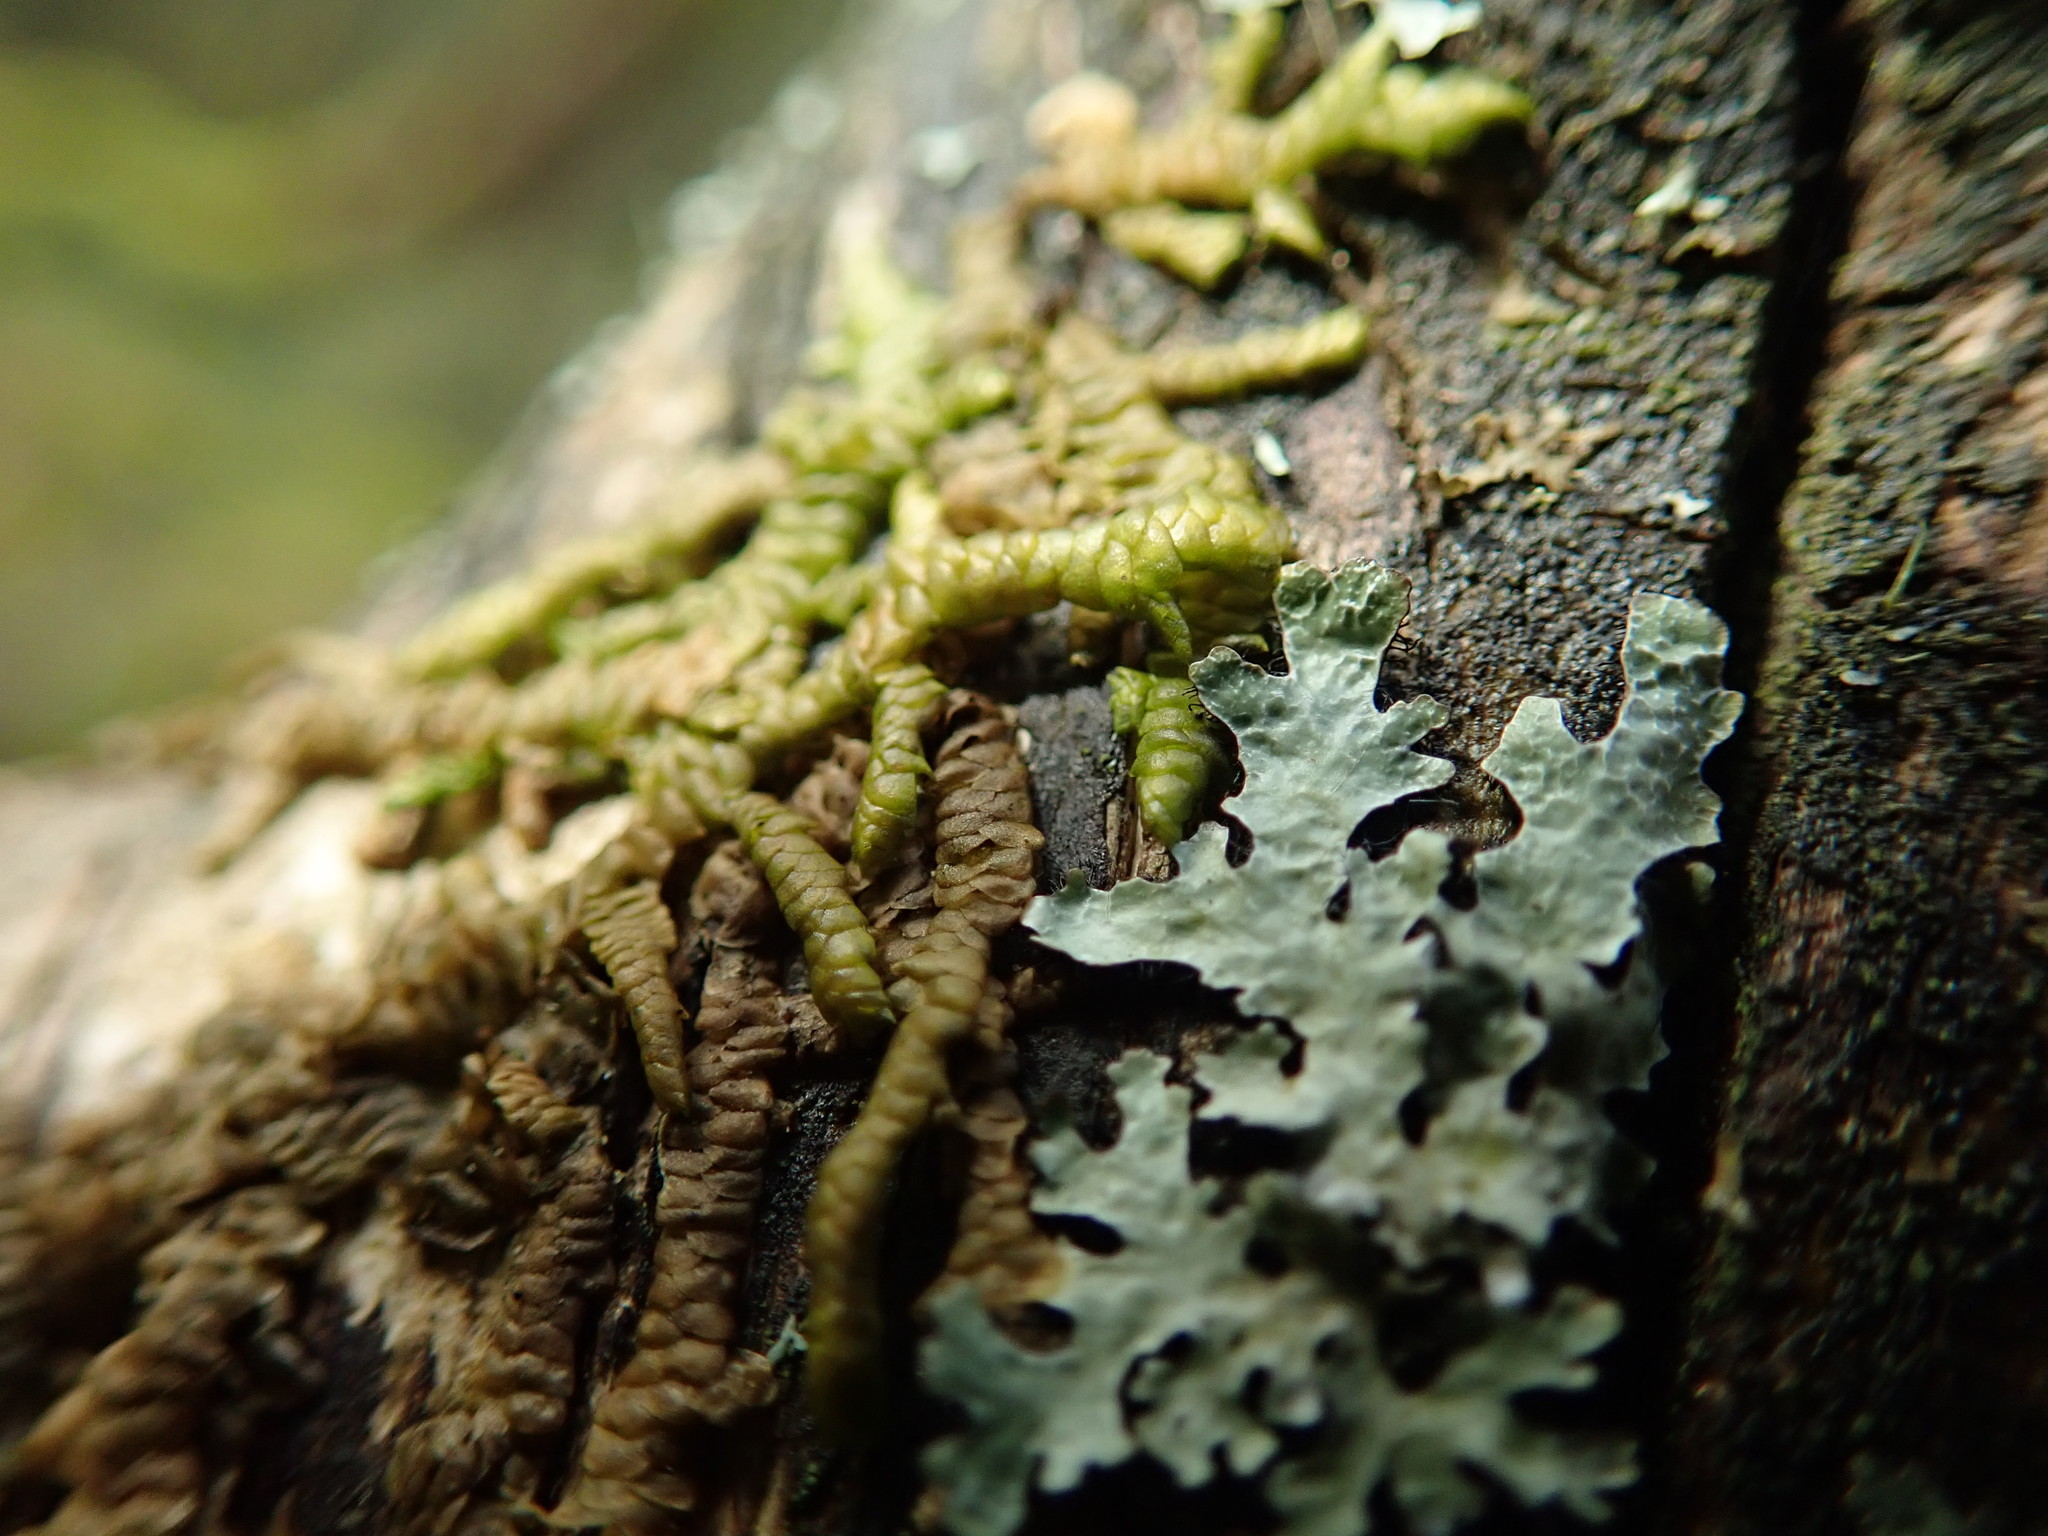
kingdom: Plantae
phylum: Marchantiophyta
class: Jungermanniopsida
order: Porellales
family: Porellaceae
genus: Porella
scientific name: Porella navicularis
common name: Tree ruffle liverwort
